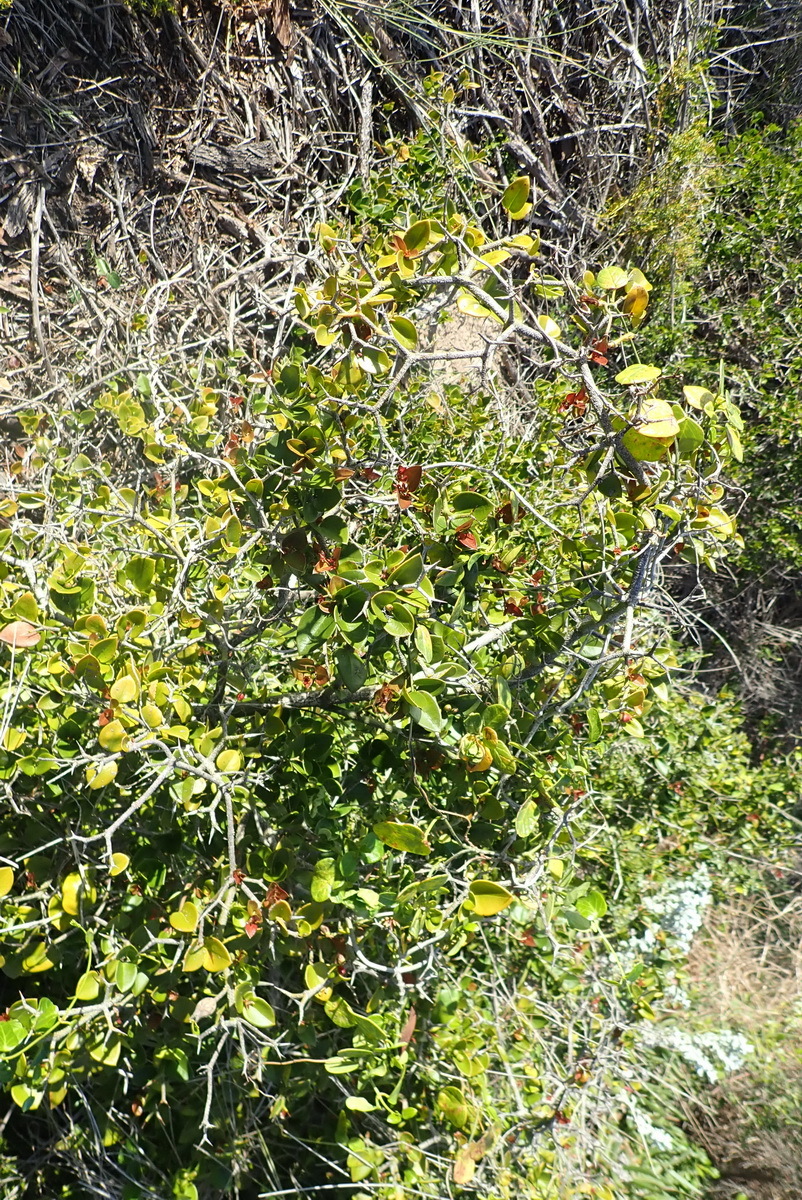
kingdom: Plantae
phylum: Tracheophyta
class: Magnoliopsida
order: Gentianales
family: Apocynaceae
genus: Carissa
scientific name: Carissa bispinosa
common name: Forest num-num
